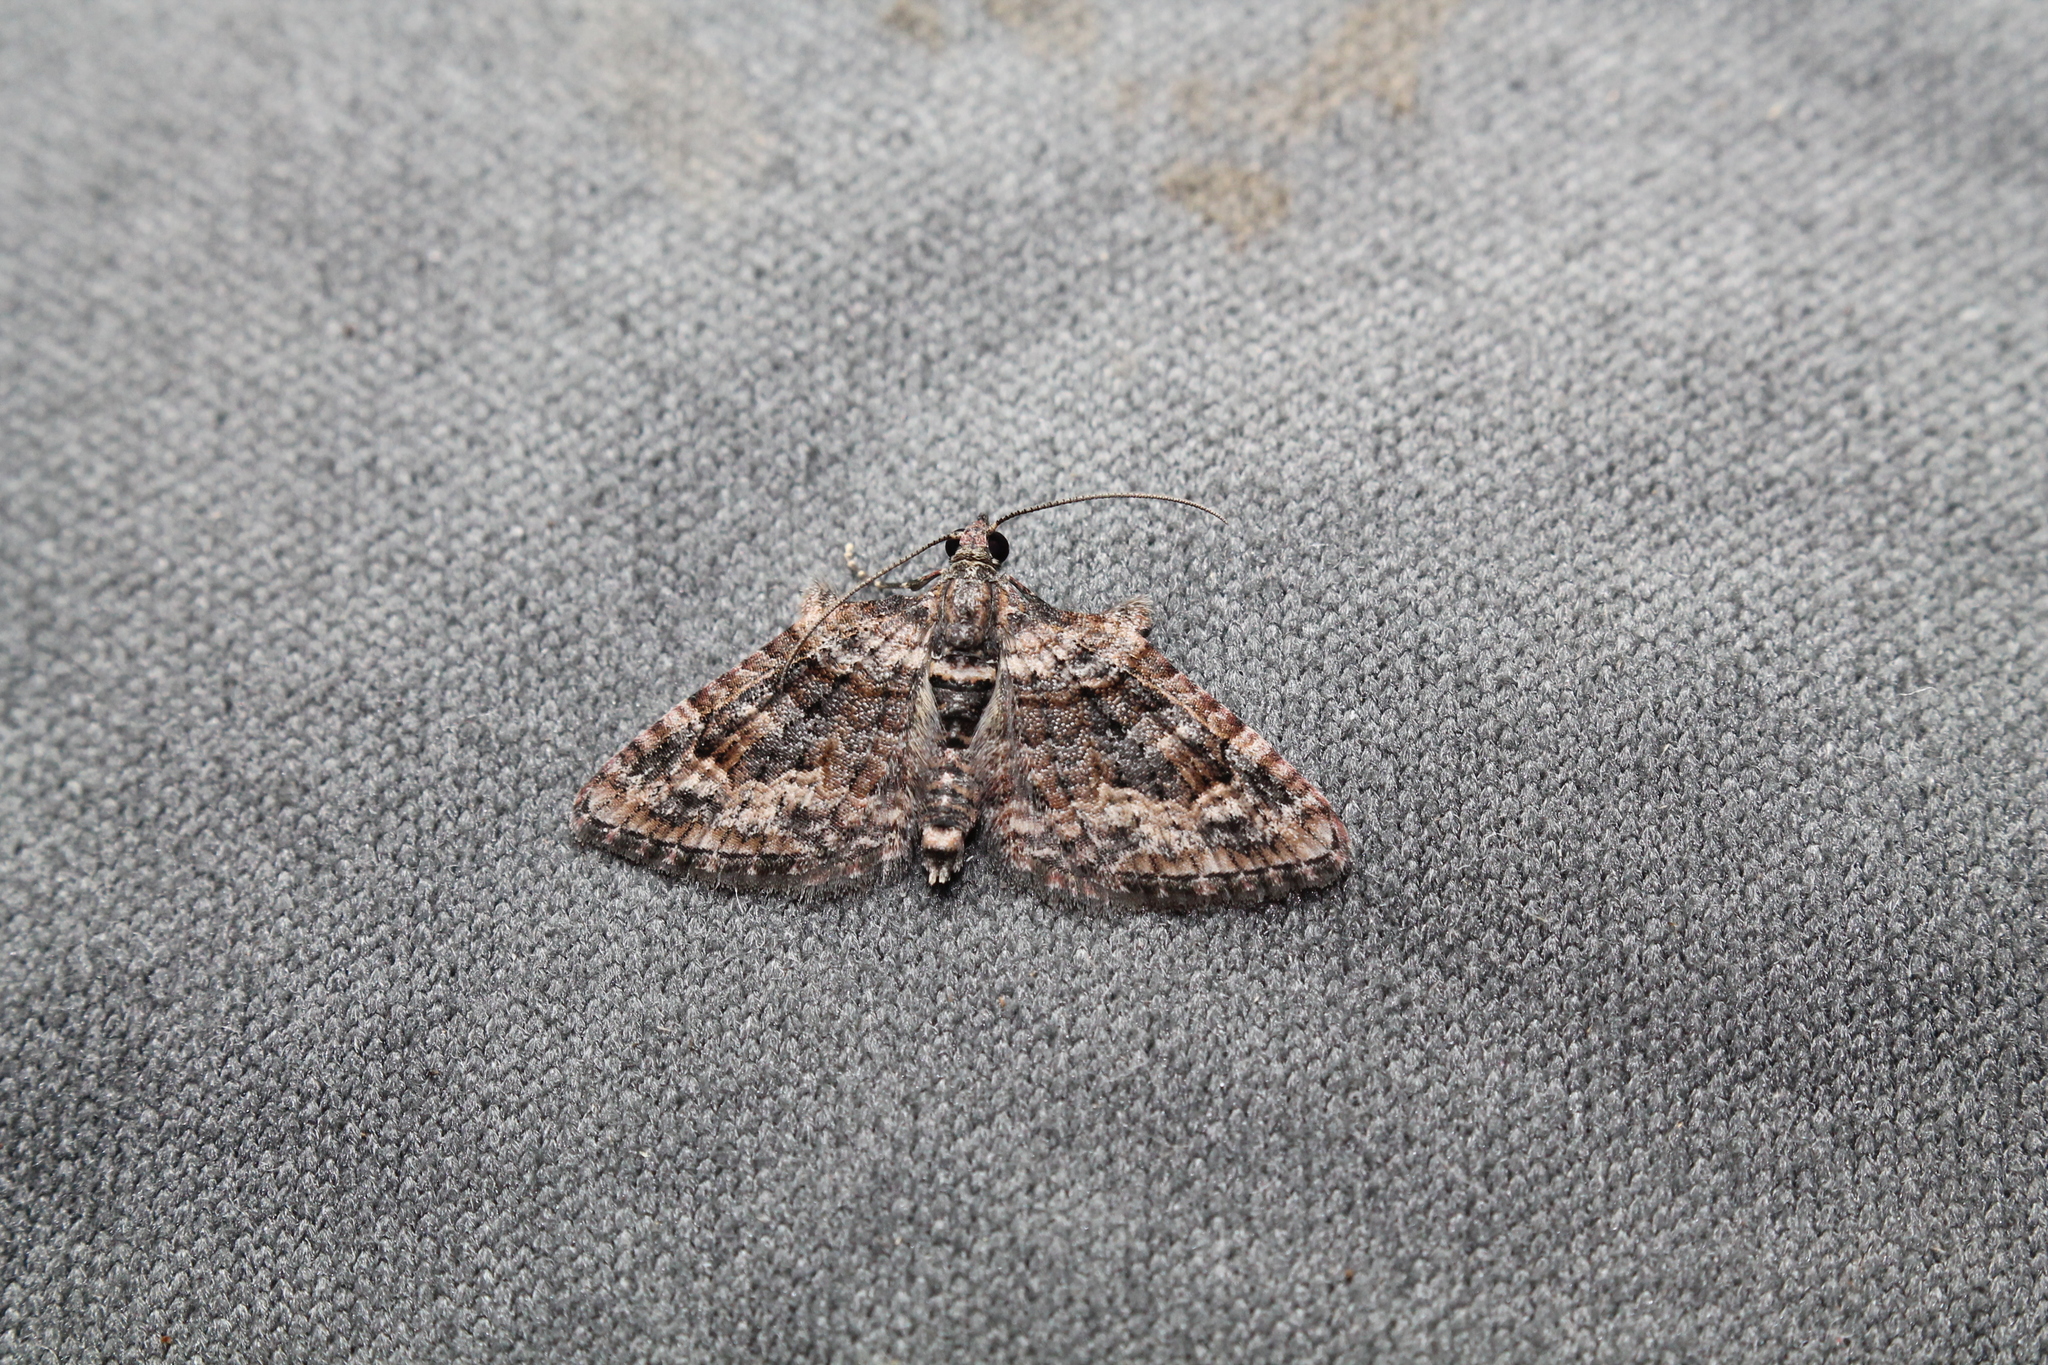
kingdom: Animalia
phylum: Arthropoda
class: Insecta
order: Lepidoptera
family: Geometridae
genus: Phrissogonus
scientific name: Phrissogonus laticostata
